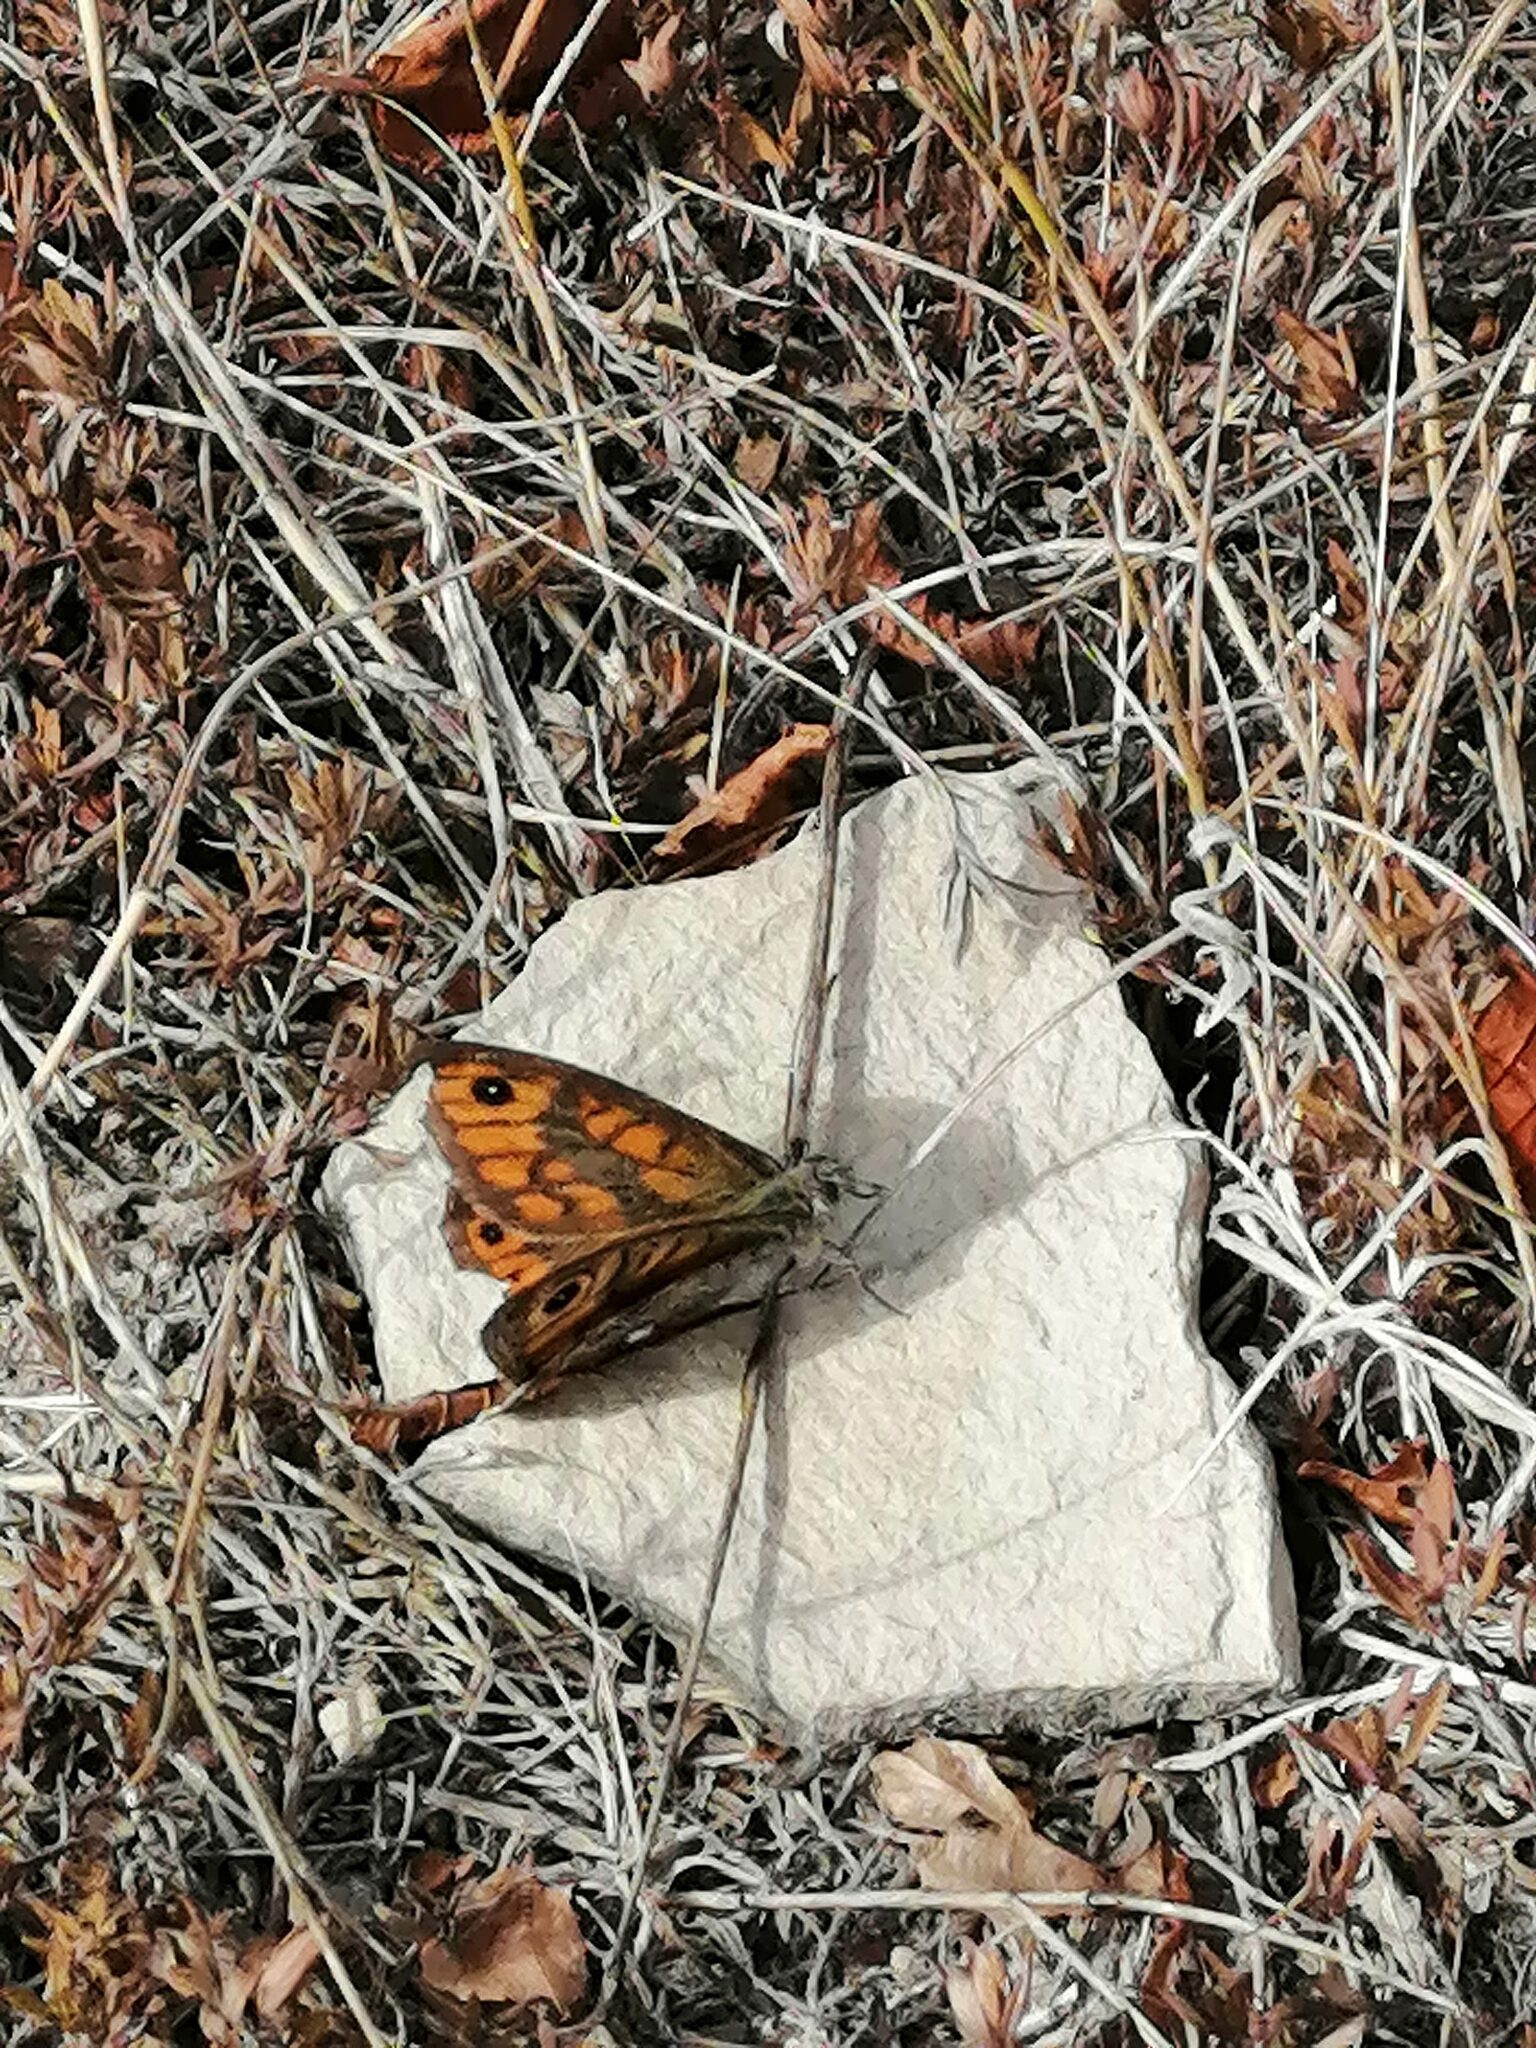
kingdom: Animalia
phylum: Arthropoda
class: Insecta
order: Lepidoptera
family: Nymphalidae
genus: Pararge
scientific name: Pararge Lasiommata megera
